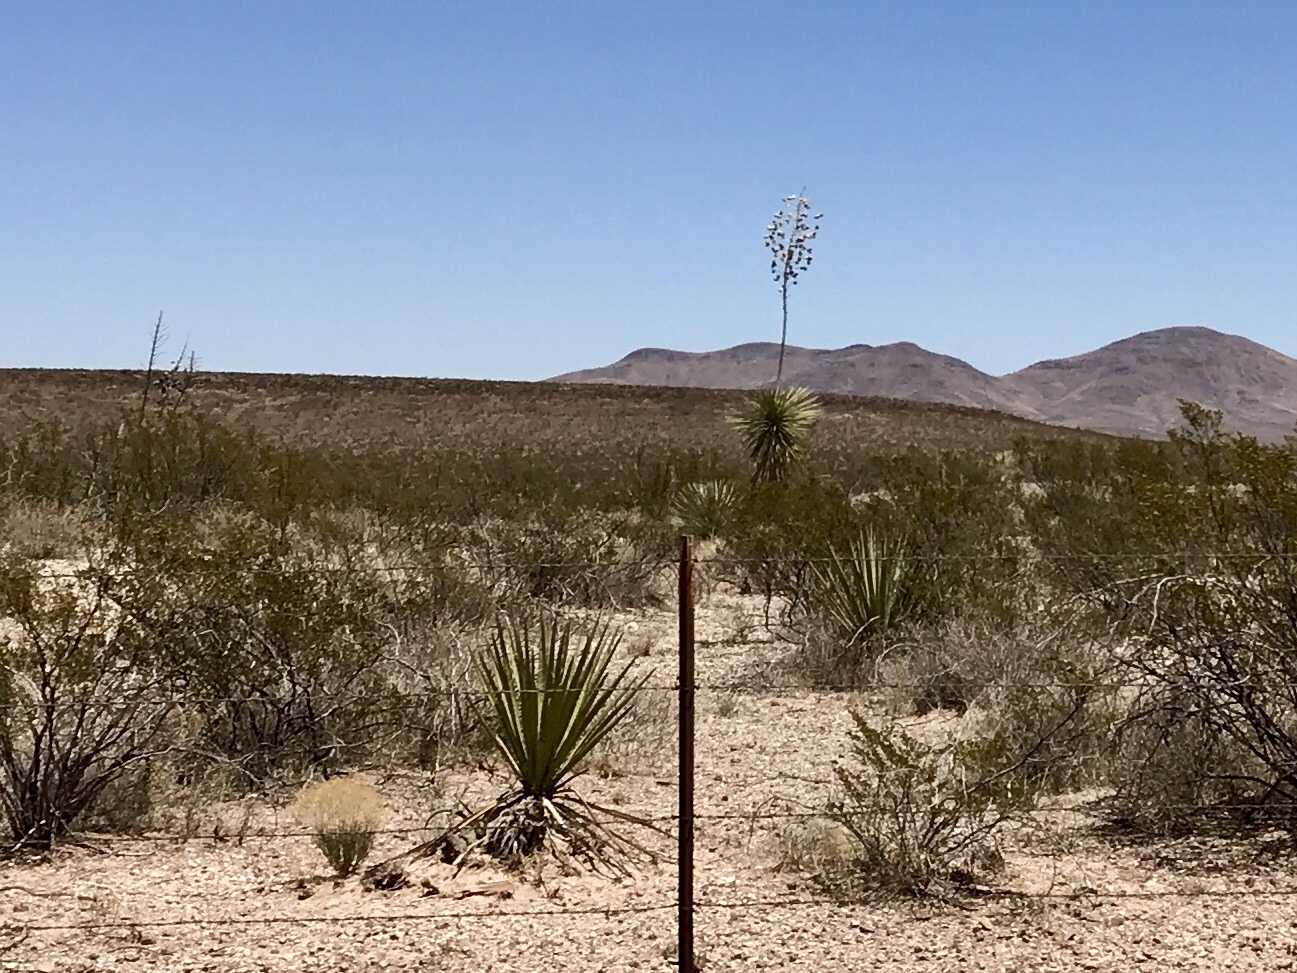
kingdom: Plantae
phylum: Tracheophyta
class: Liliopsida
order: Asparagales
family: Asparagaceae
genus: Yucca
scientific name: Yucca elata
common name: Palmella
